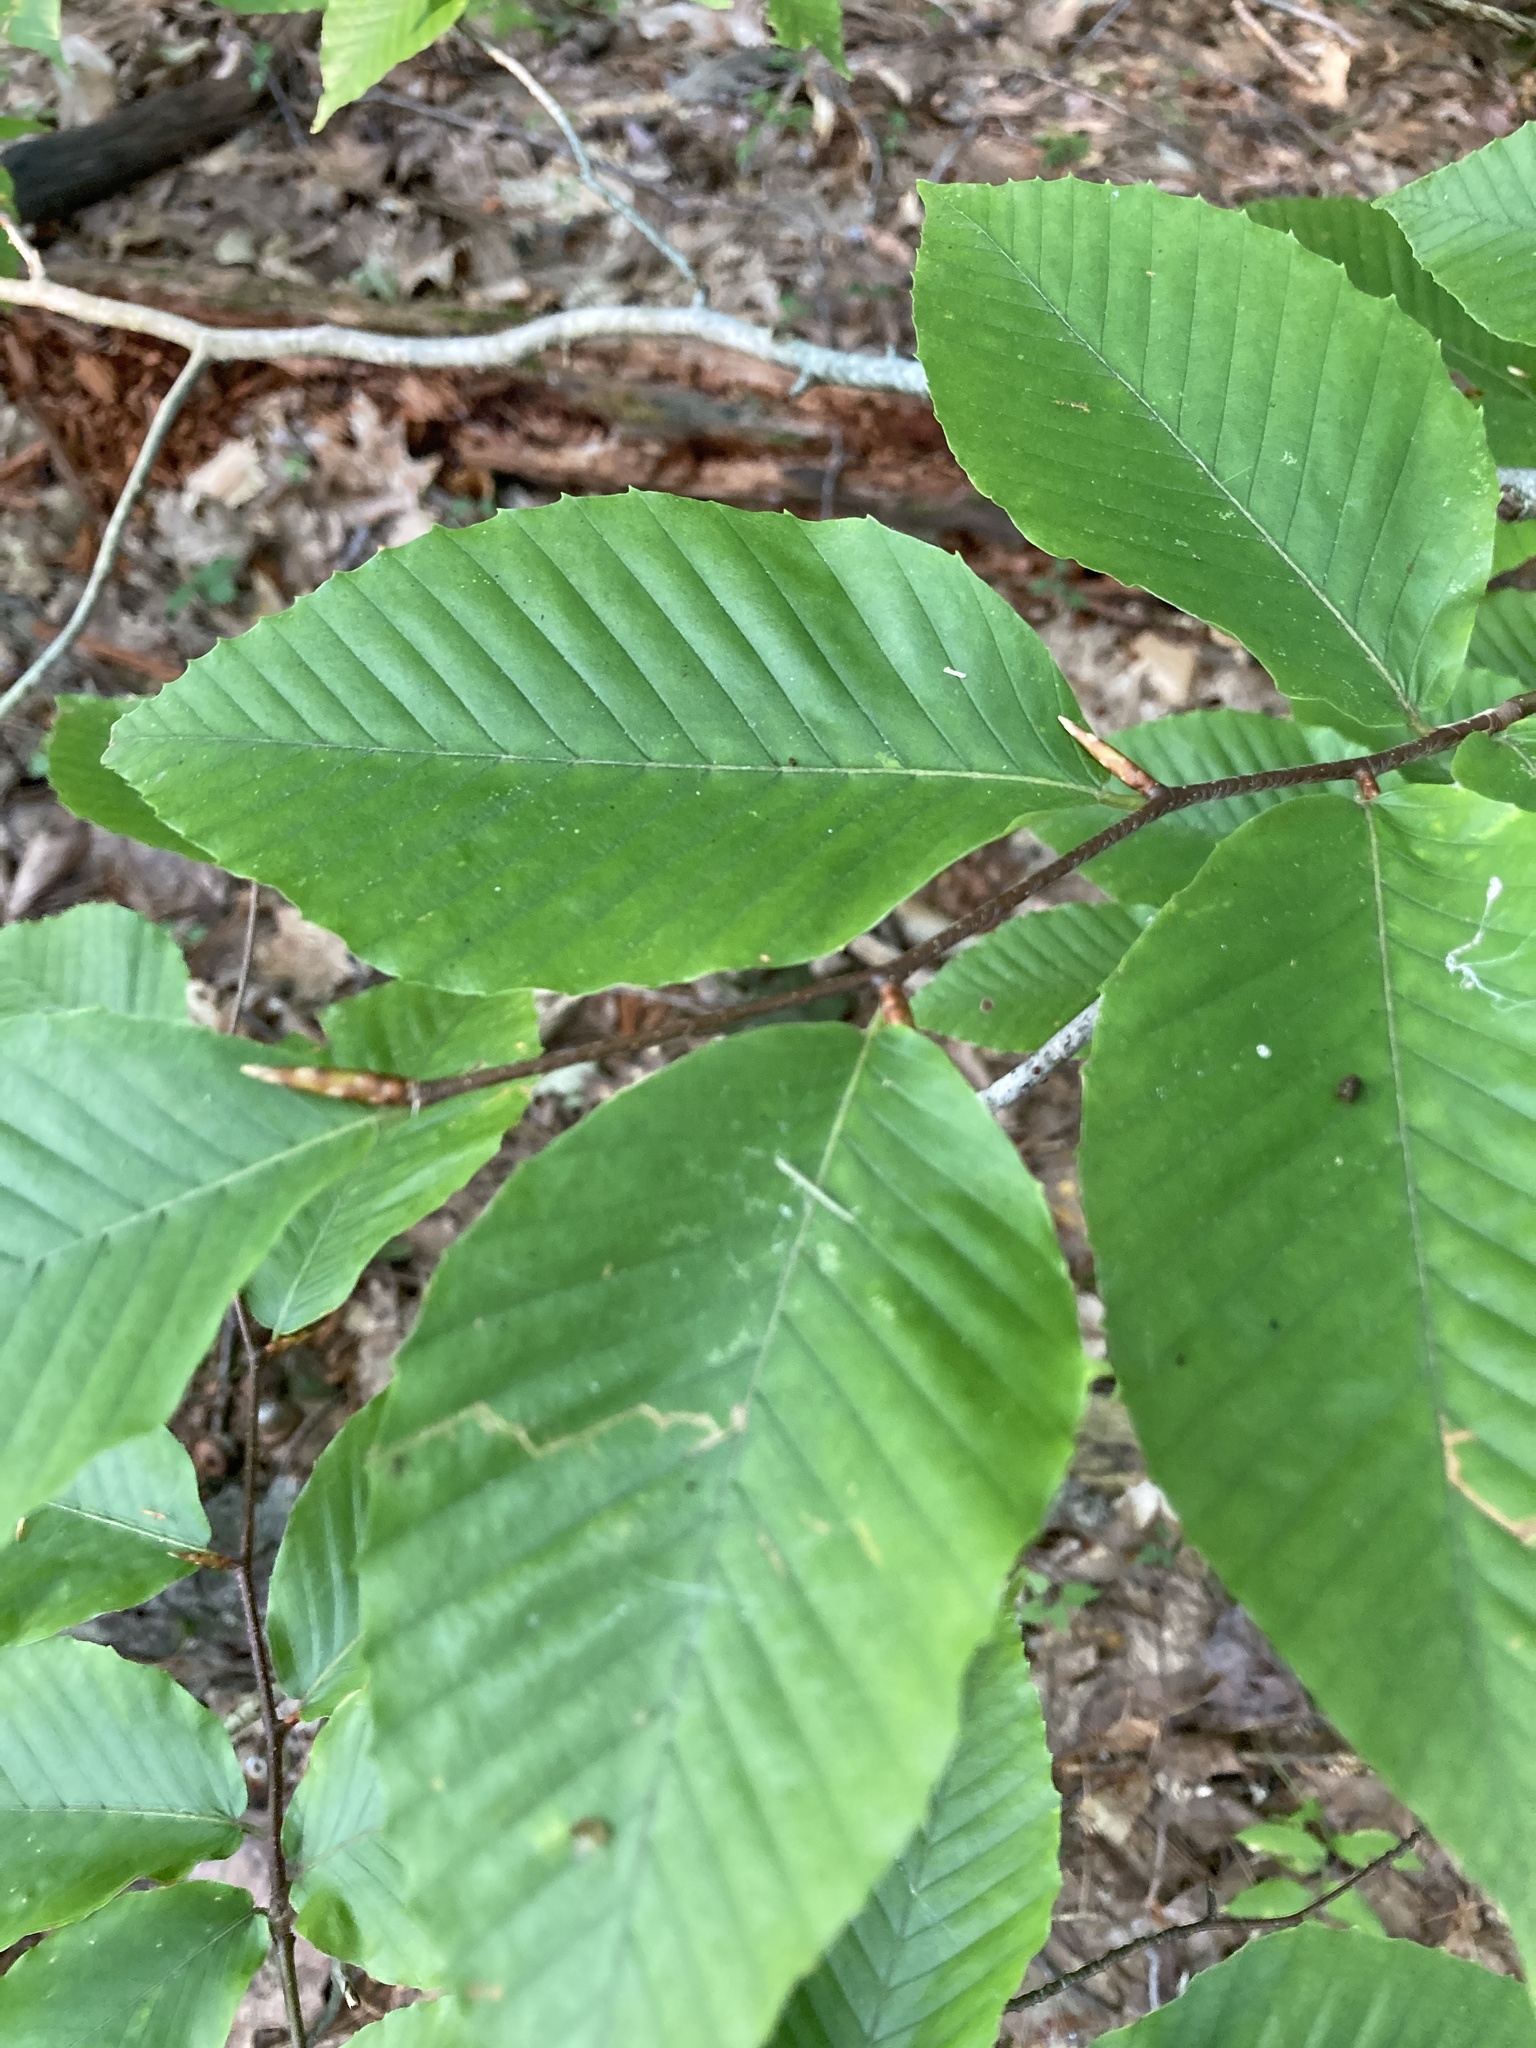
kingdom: Plantae
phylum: Tracheophyta
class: Magnoliopsida
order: Fagales
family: Fagaceae
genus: Fagus
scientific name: Fagus grandifolia
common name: American beech
